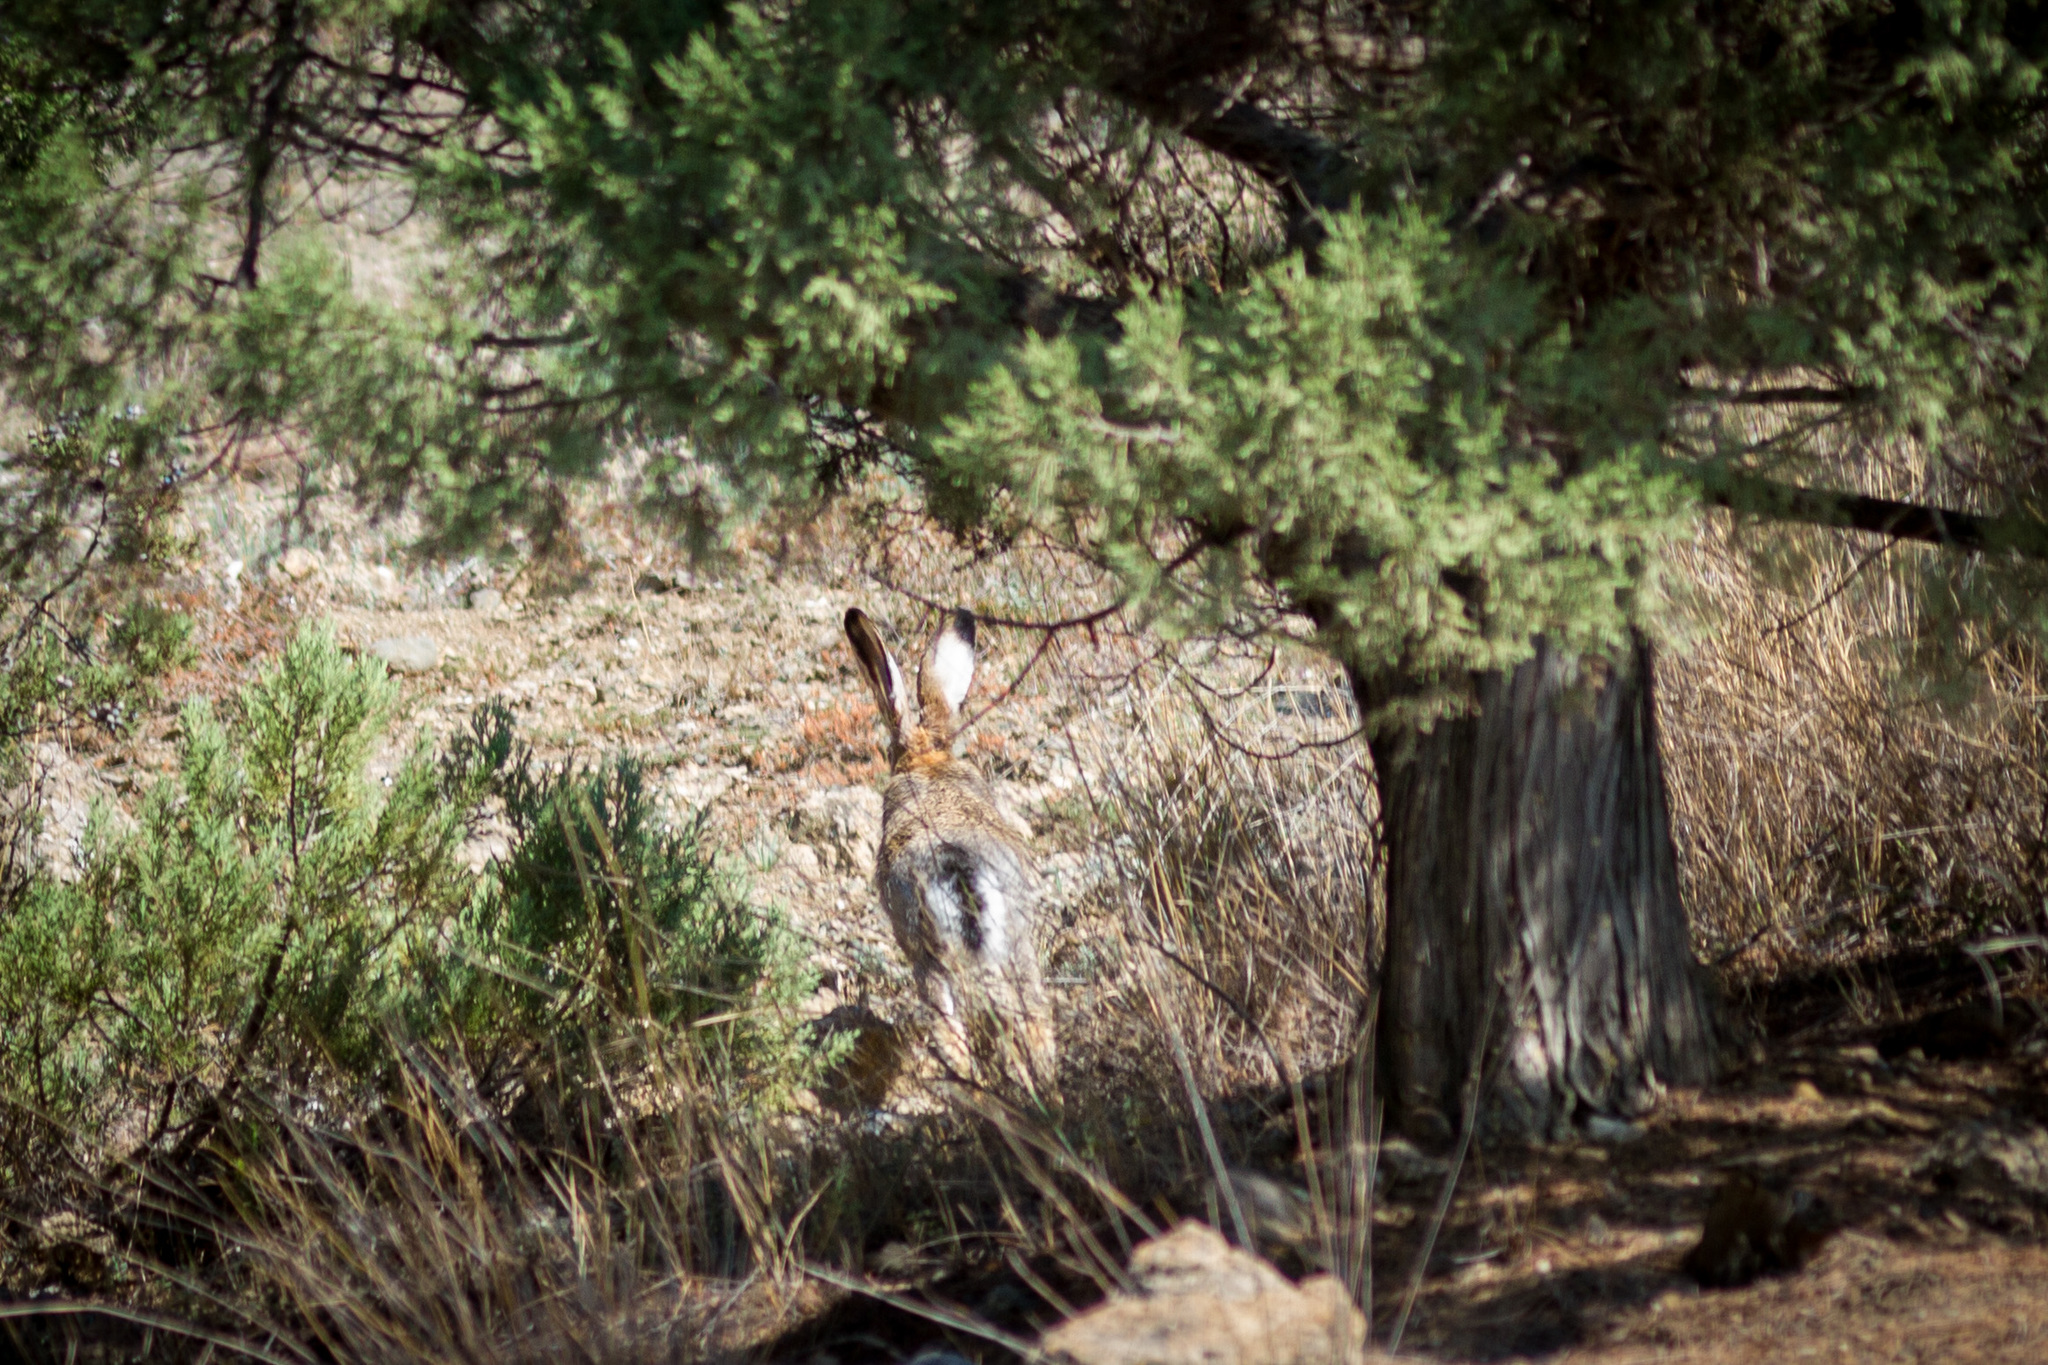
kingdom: Animalia
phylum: Chordata
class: Mammalia
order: Lagomorpha
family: Leporidae
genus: Lepus
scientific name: Lepus europaeus
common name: European hare
